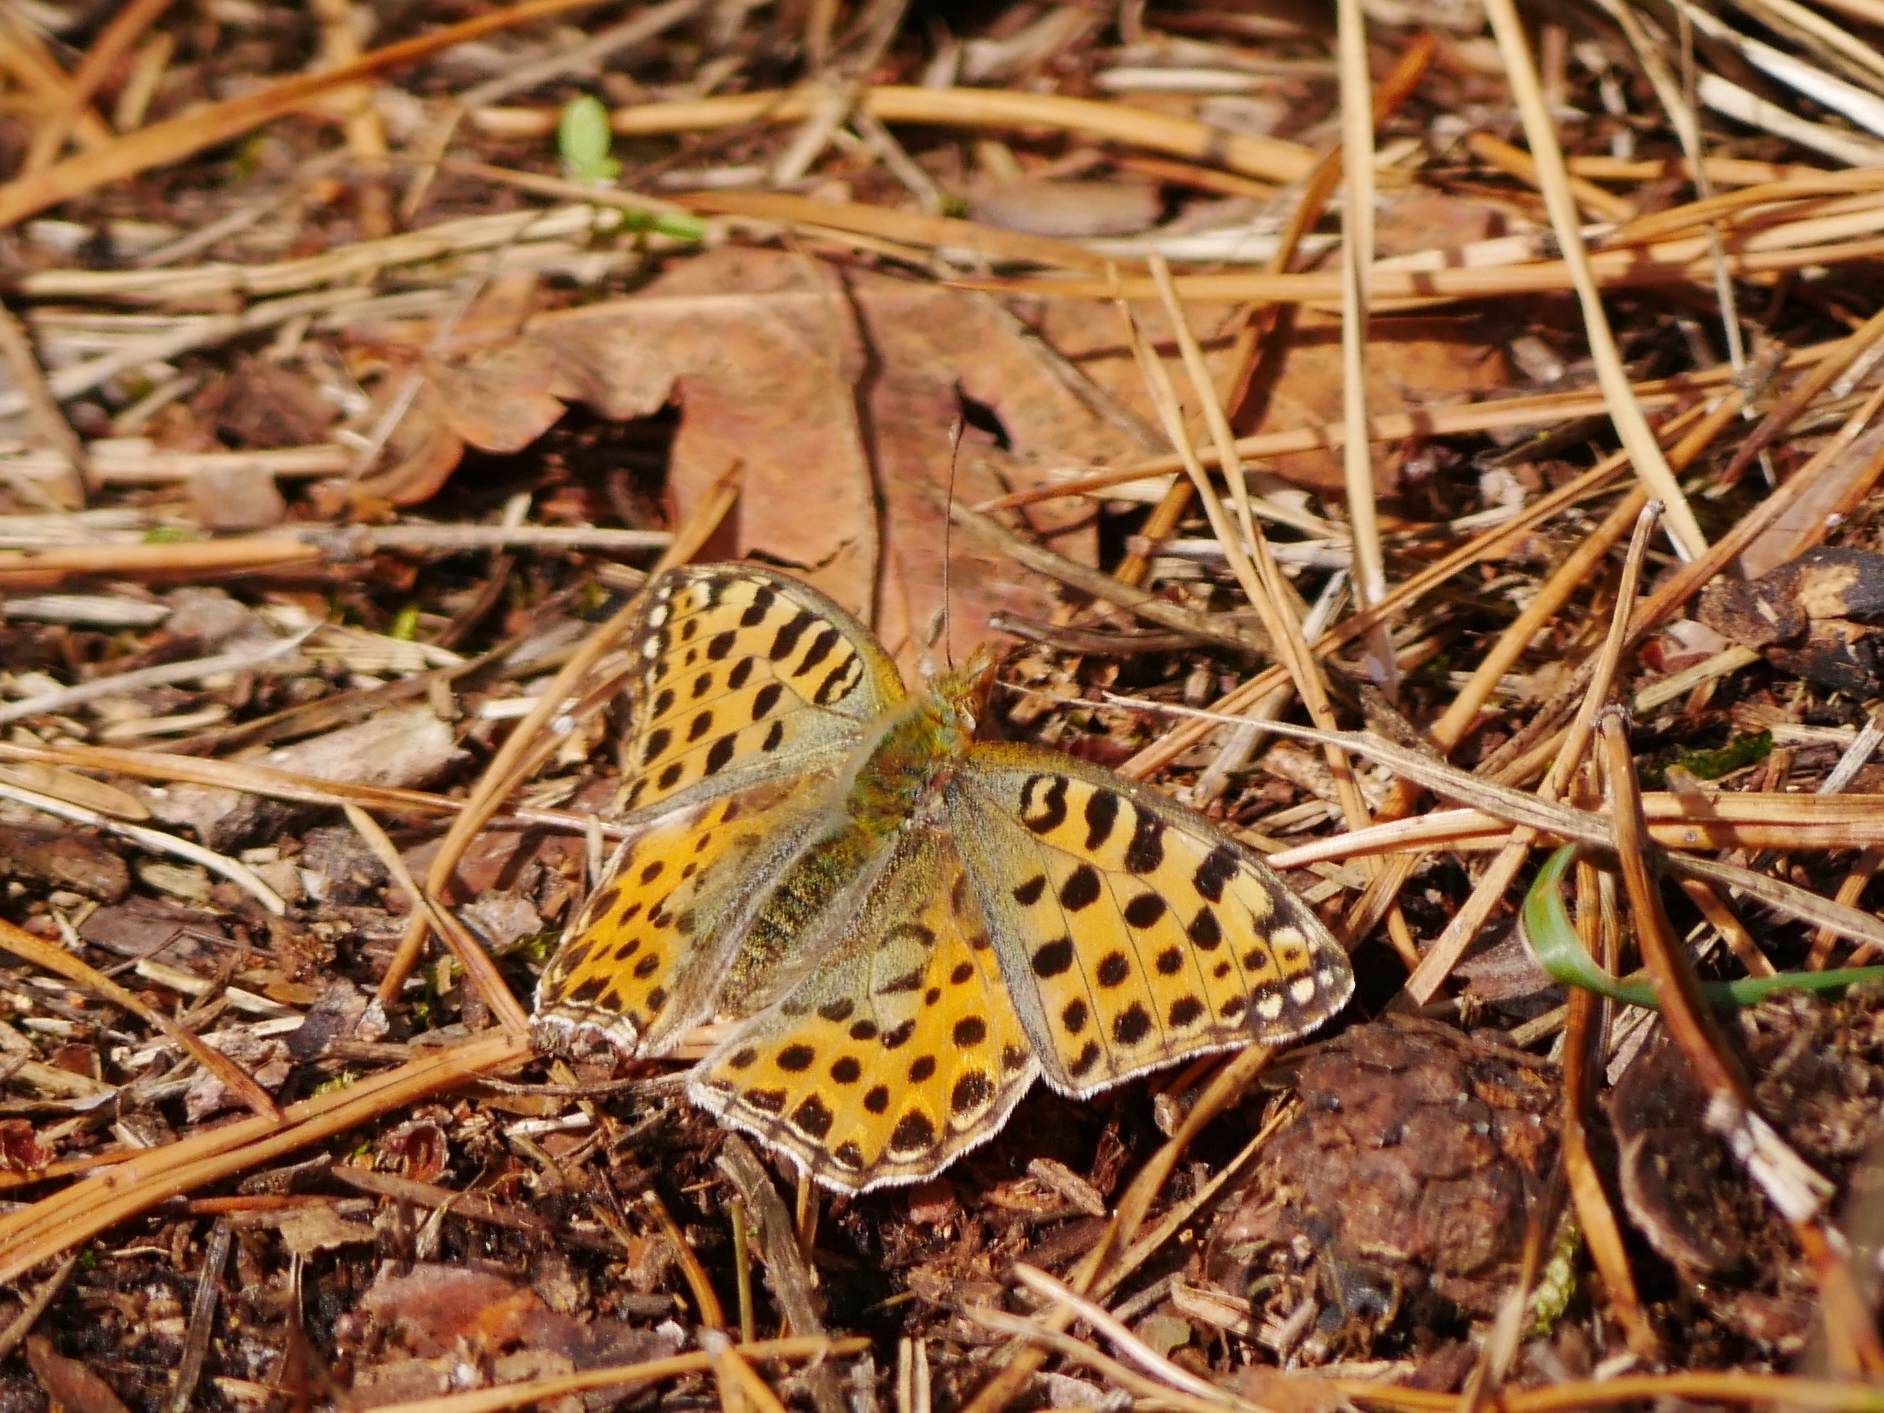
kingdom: Animalia
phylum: Arthropoda
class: Insecta
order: Lepidoptera
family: Nymphalidae
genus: Issoria
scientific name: Issoria lathonia
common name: Queen of spain fritillary
